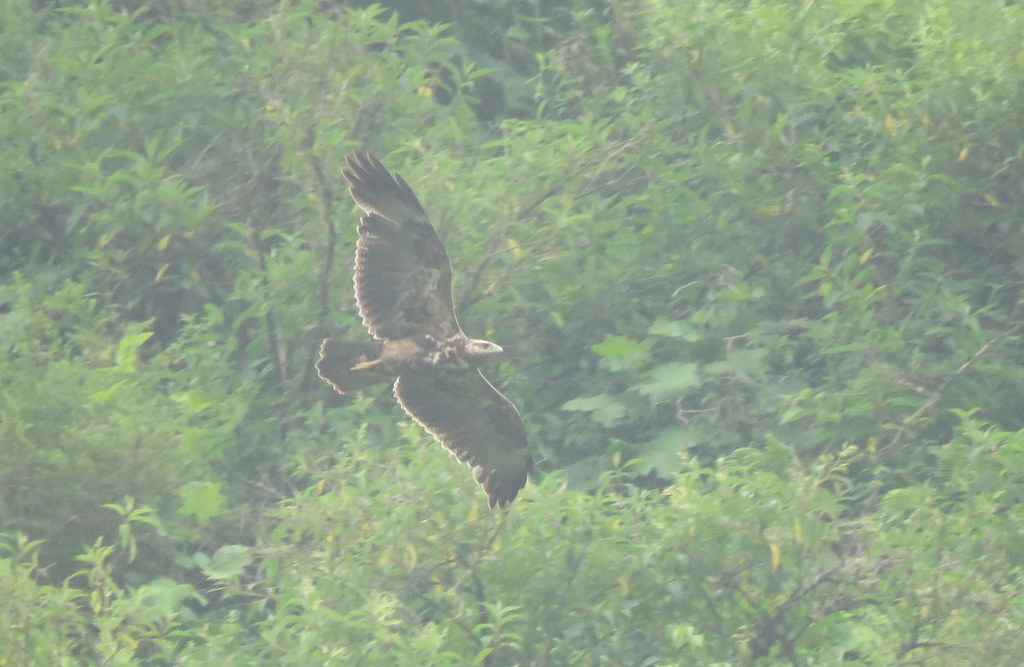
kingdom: Animalia
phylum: Chordata
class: Aves
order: Accipitriformes
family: Accipitridae
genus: Geranoaetus
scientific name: Geranoaetus melanoleucus
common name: Black-chested buzzard-eagle
